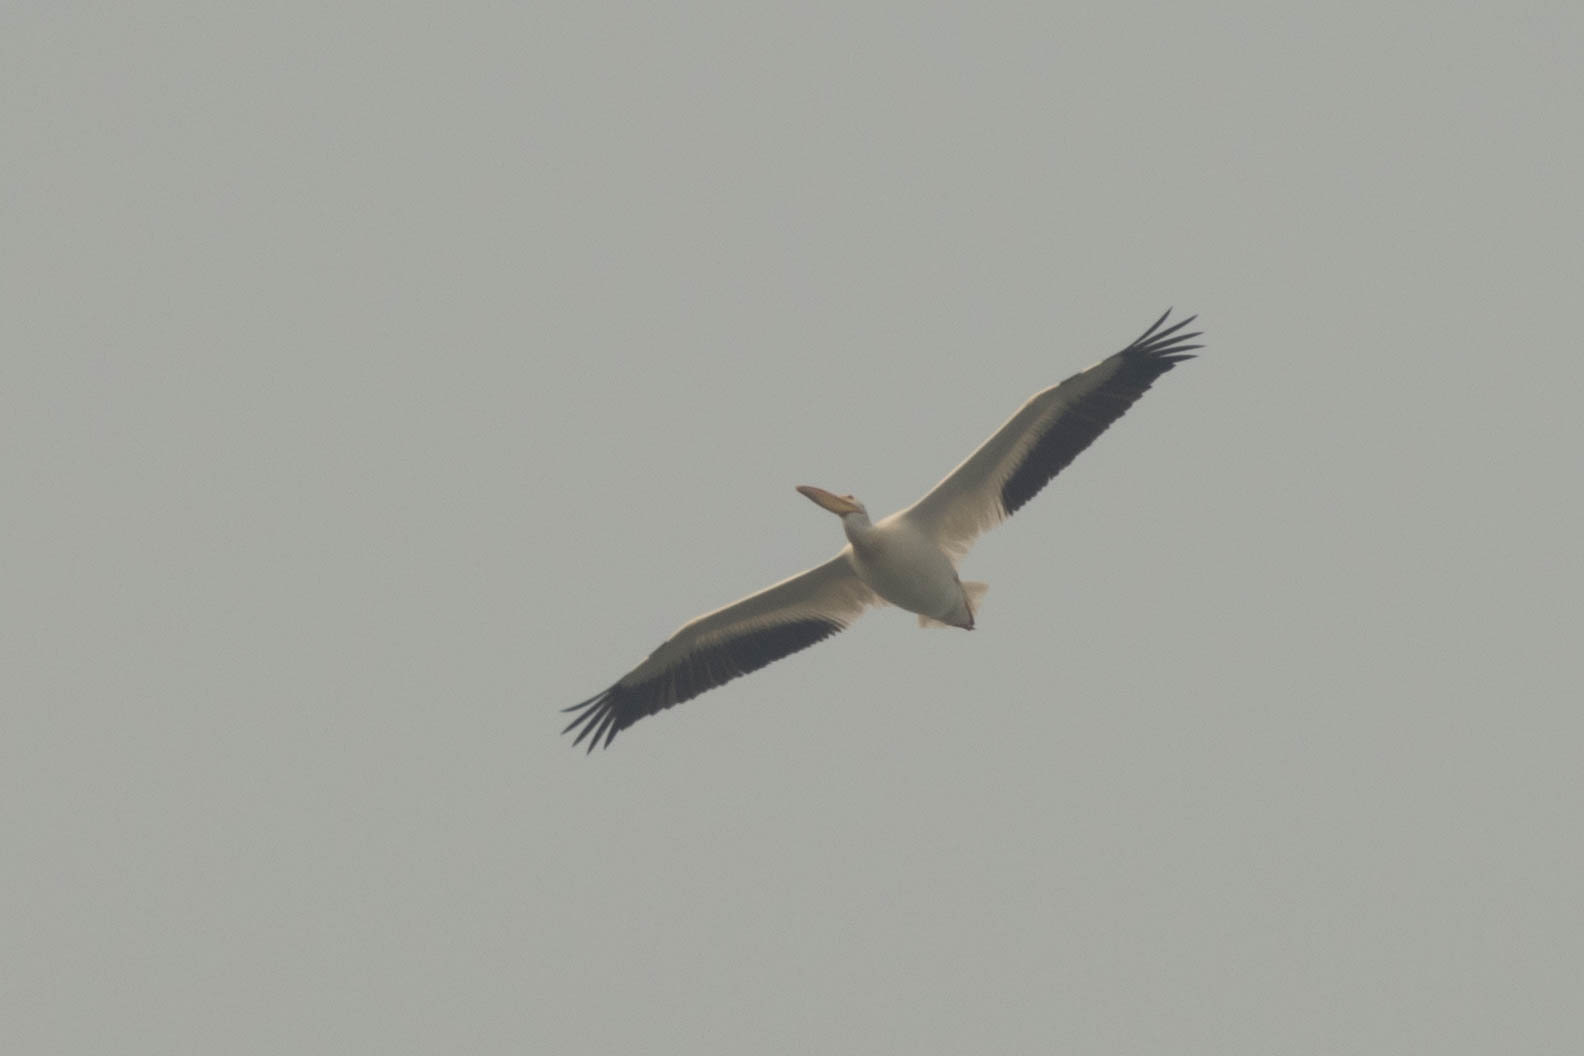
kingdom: Animalia
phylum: Chordata
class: Aves
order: Pelecaniformes
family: Pelecanidae
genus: Pelecanus
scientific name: Pelecanus erythrorhynchos
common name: American white pelican
